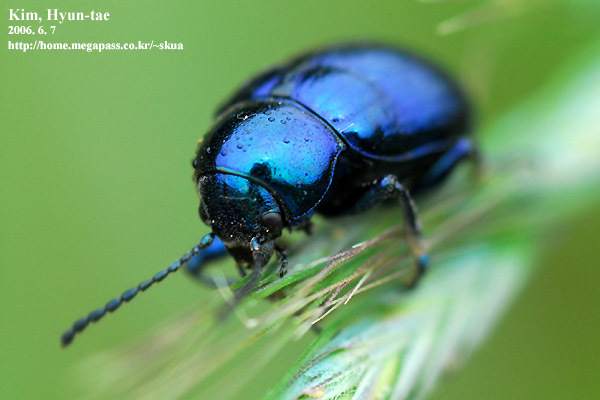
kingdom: Animalia
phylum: Arthropoda
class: Insecta
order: Coleoptera
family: Chrysomelidae
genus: Chrysochus
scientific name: Chrysochus chinensis
